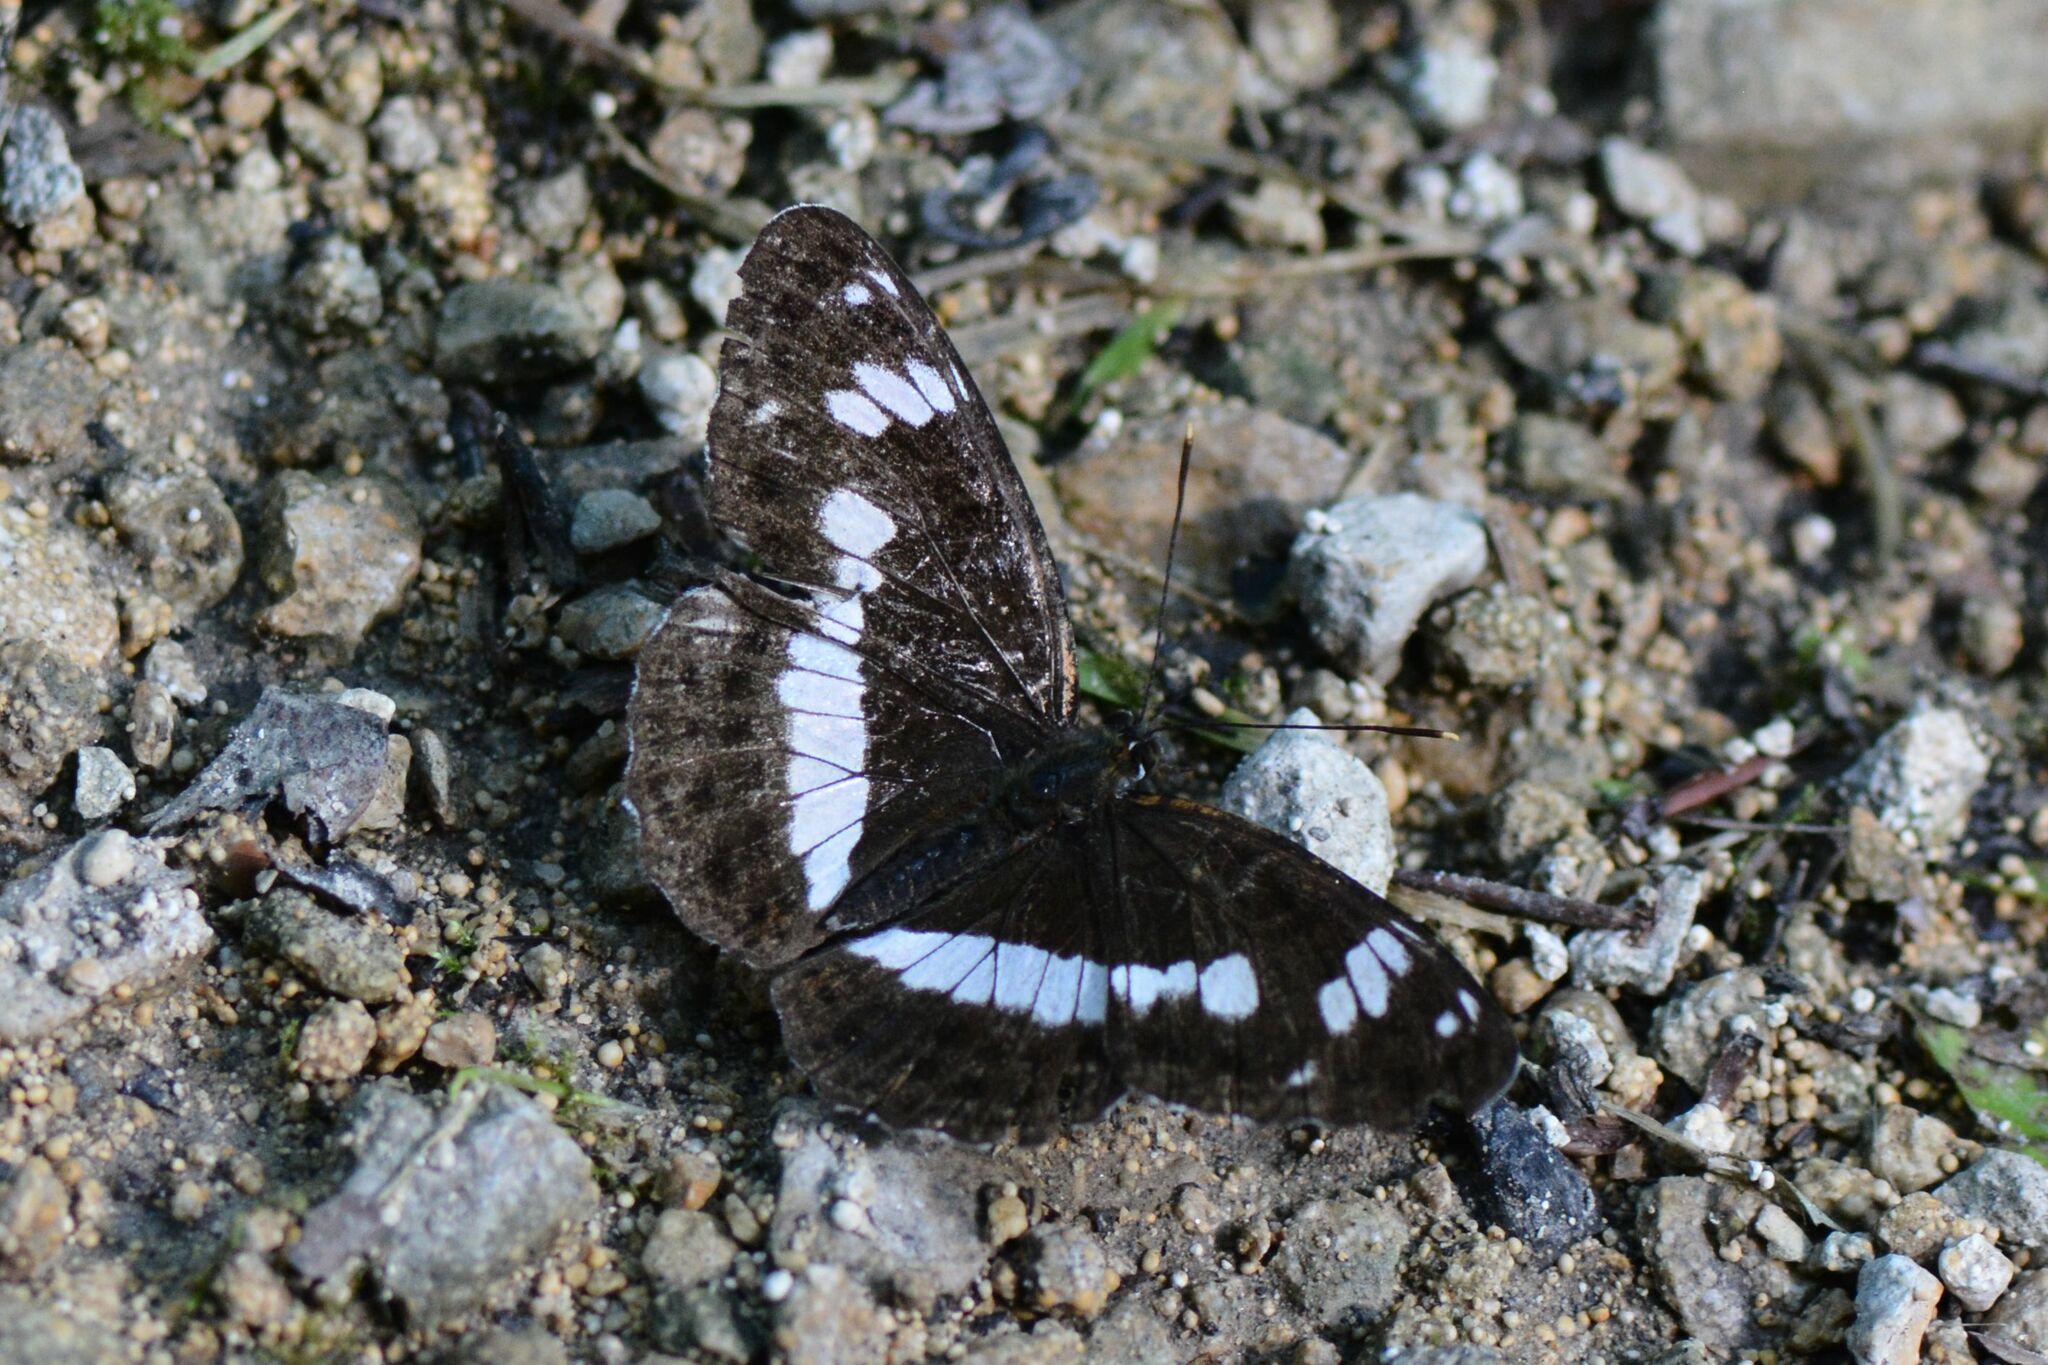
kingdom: Animalia
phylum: Arthropoda
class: Insecta
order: Lepidoptera
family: Nymphalidae
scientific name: Nymphalidae
